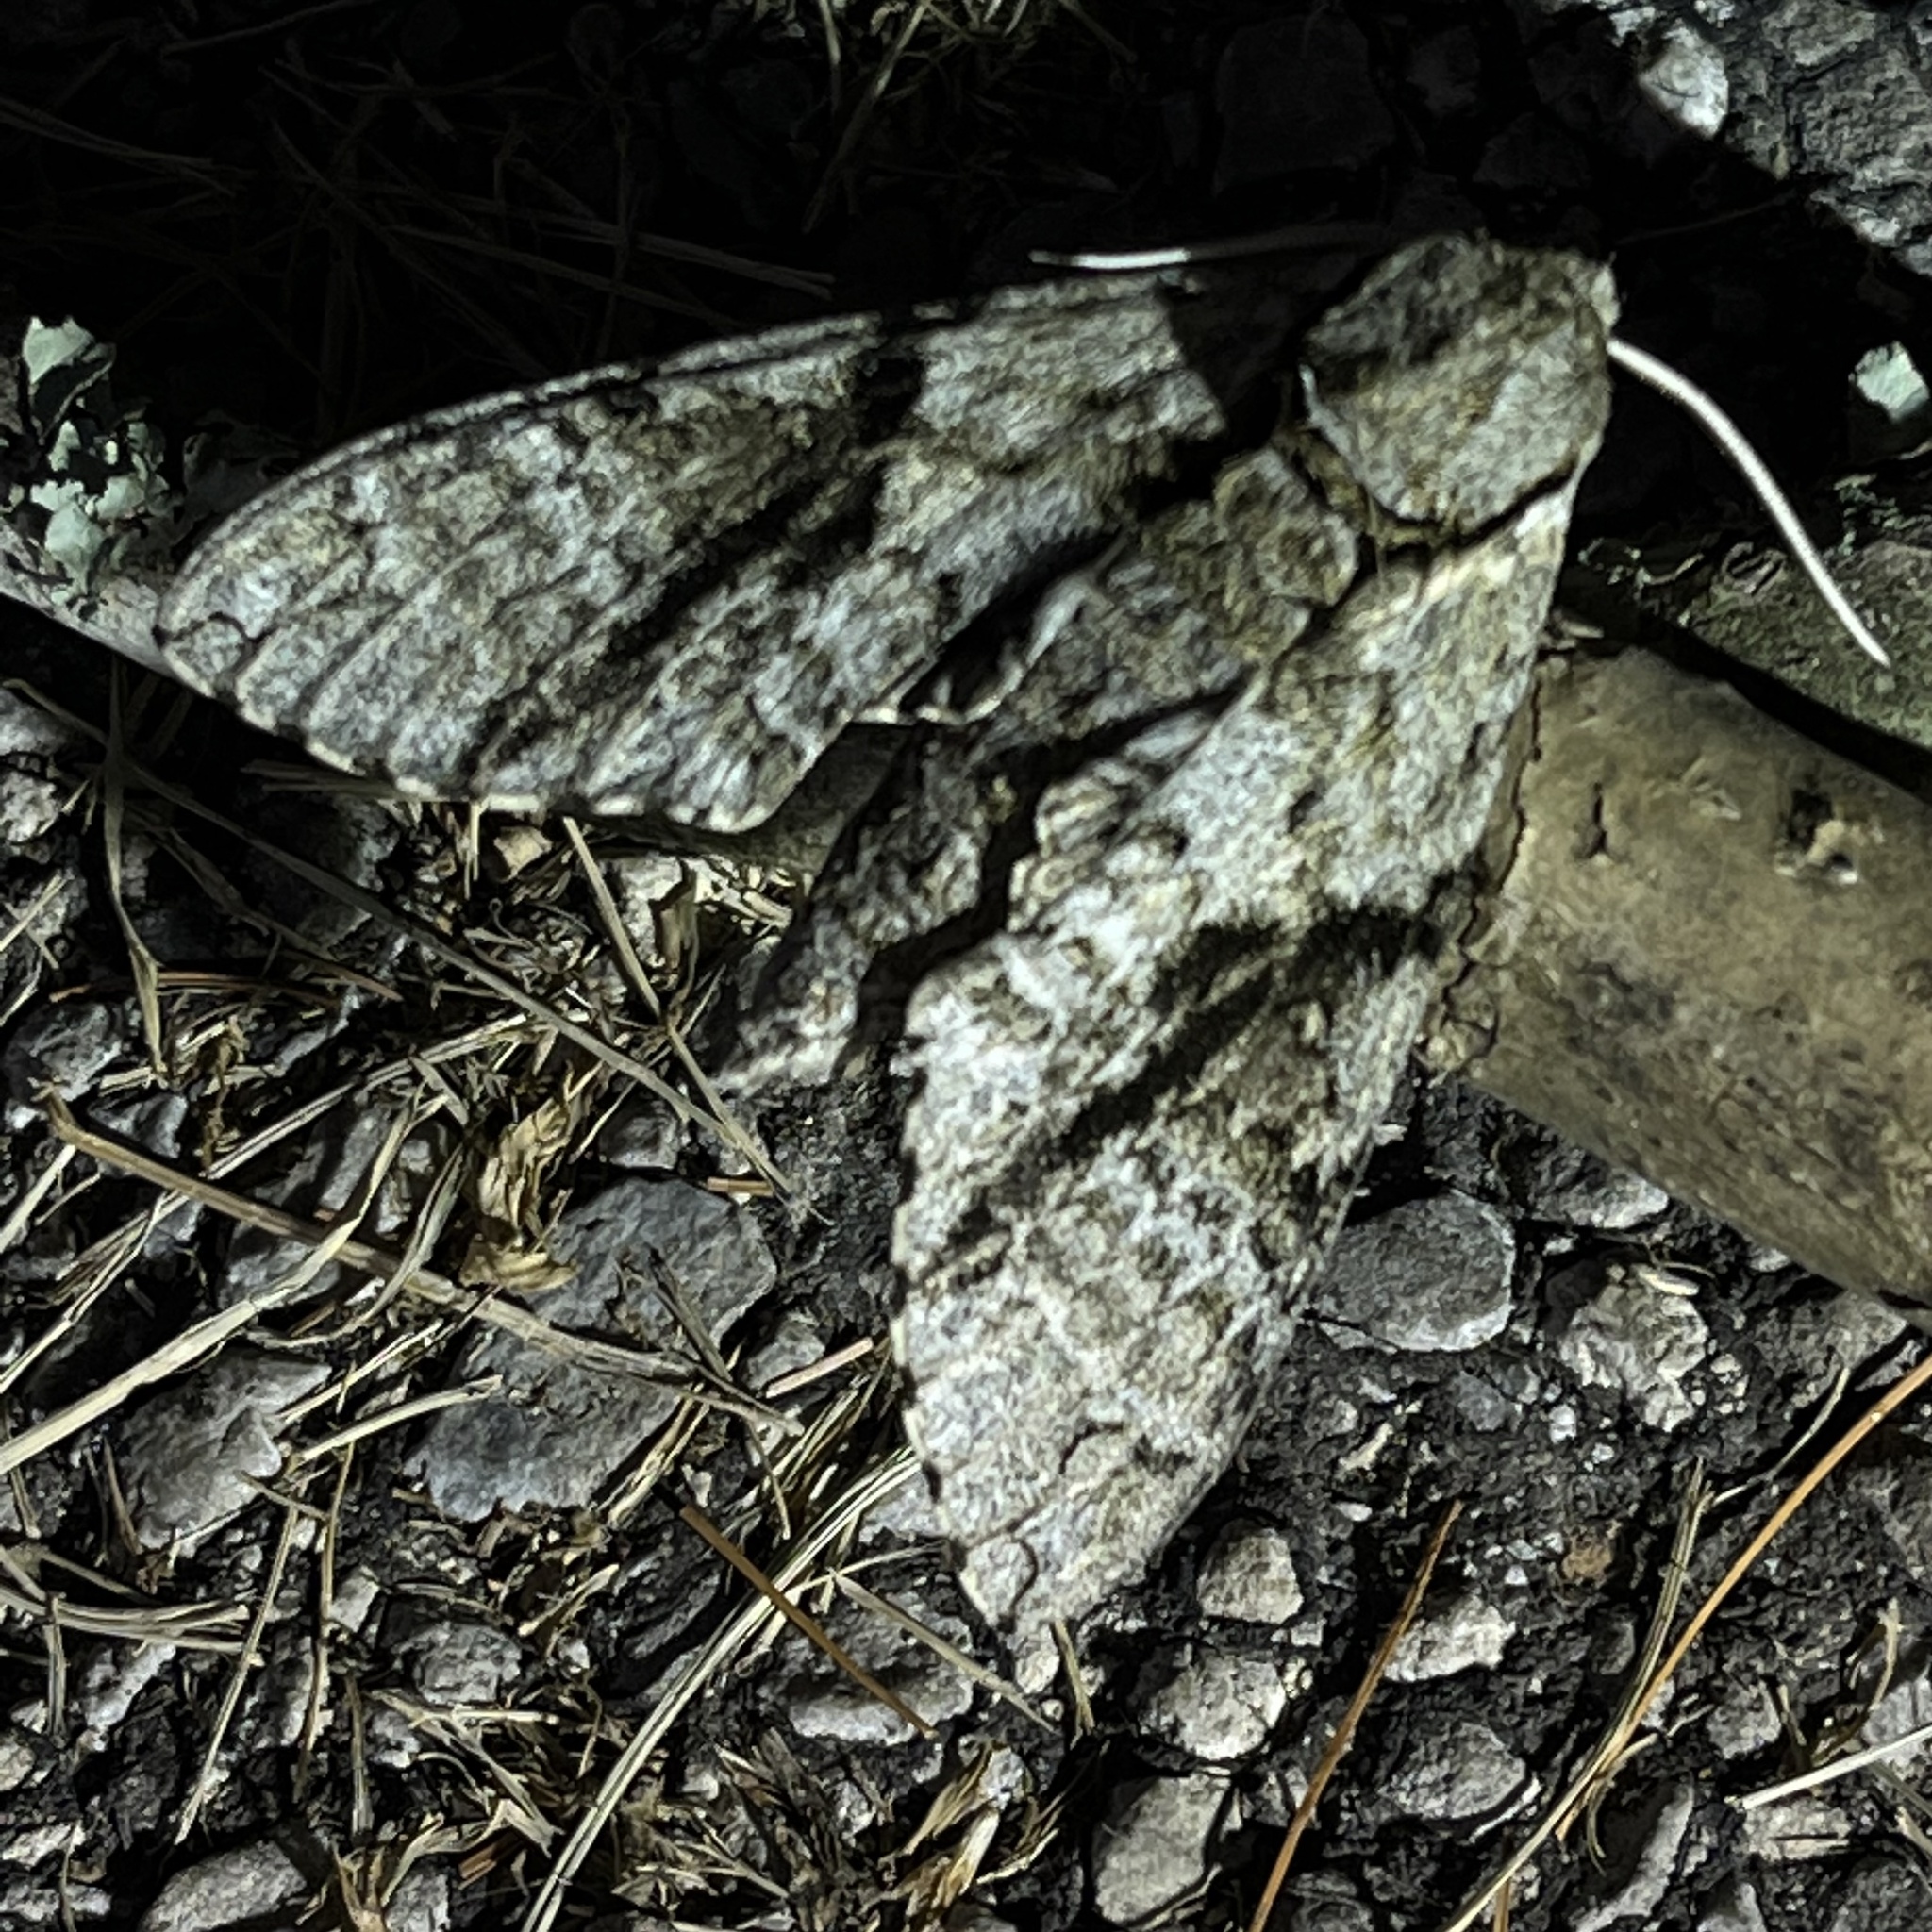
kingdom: Animalia
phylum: Arthropoda
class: Insecta
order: Lepidoptera
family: Sphingidae
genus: Manduca
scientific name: Manduca jasminearum
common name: Ash sphinx
